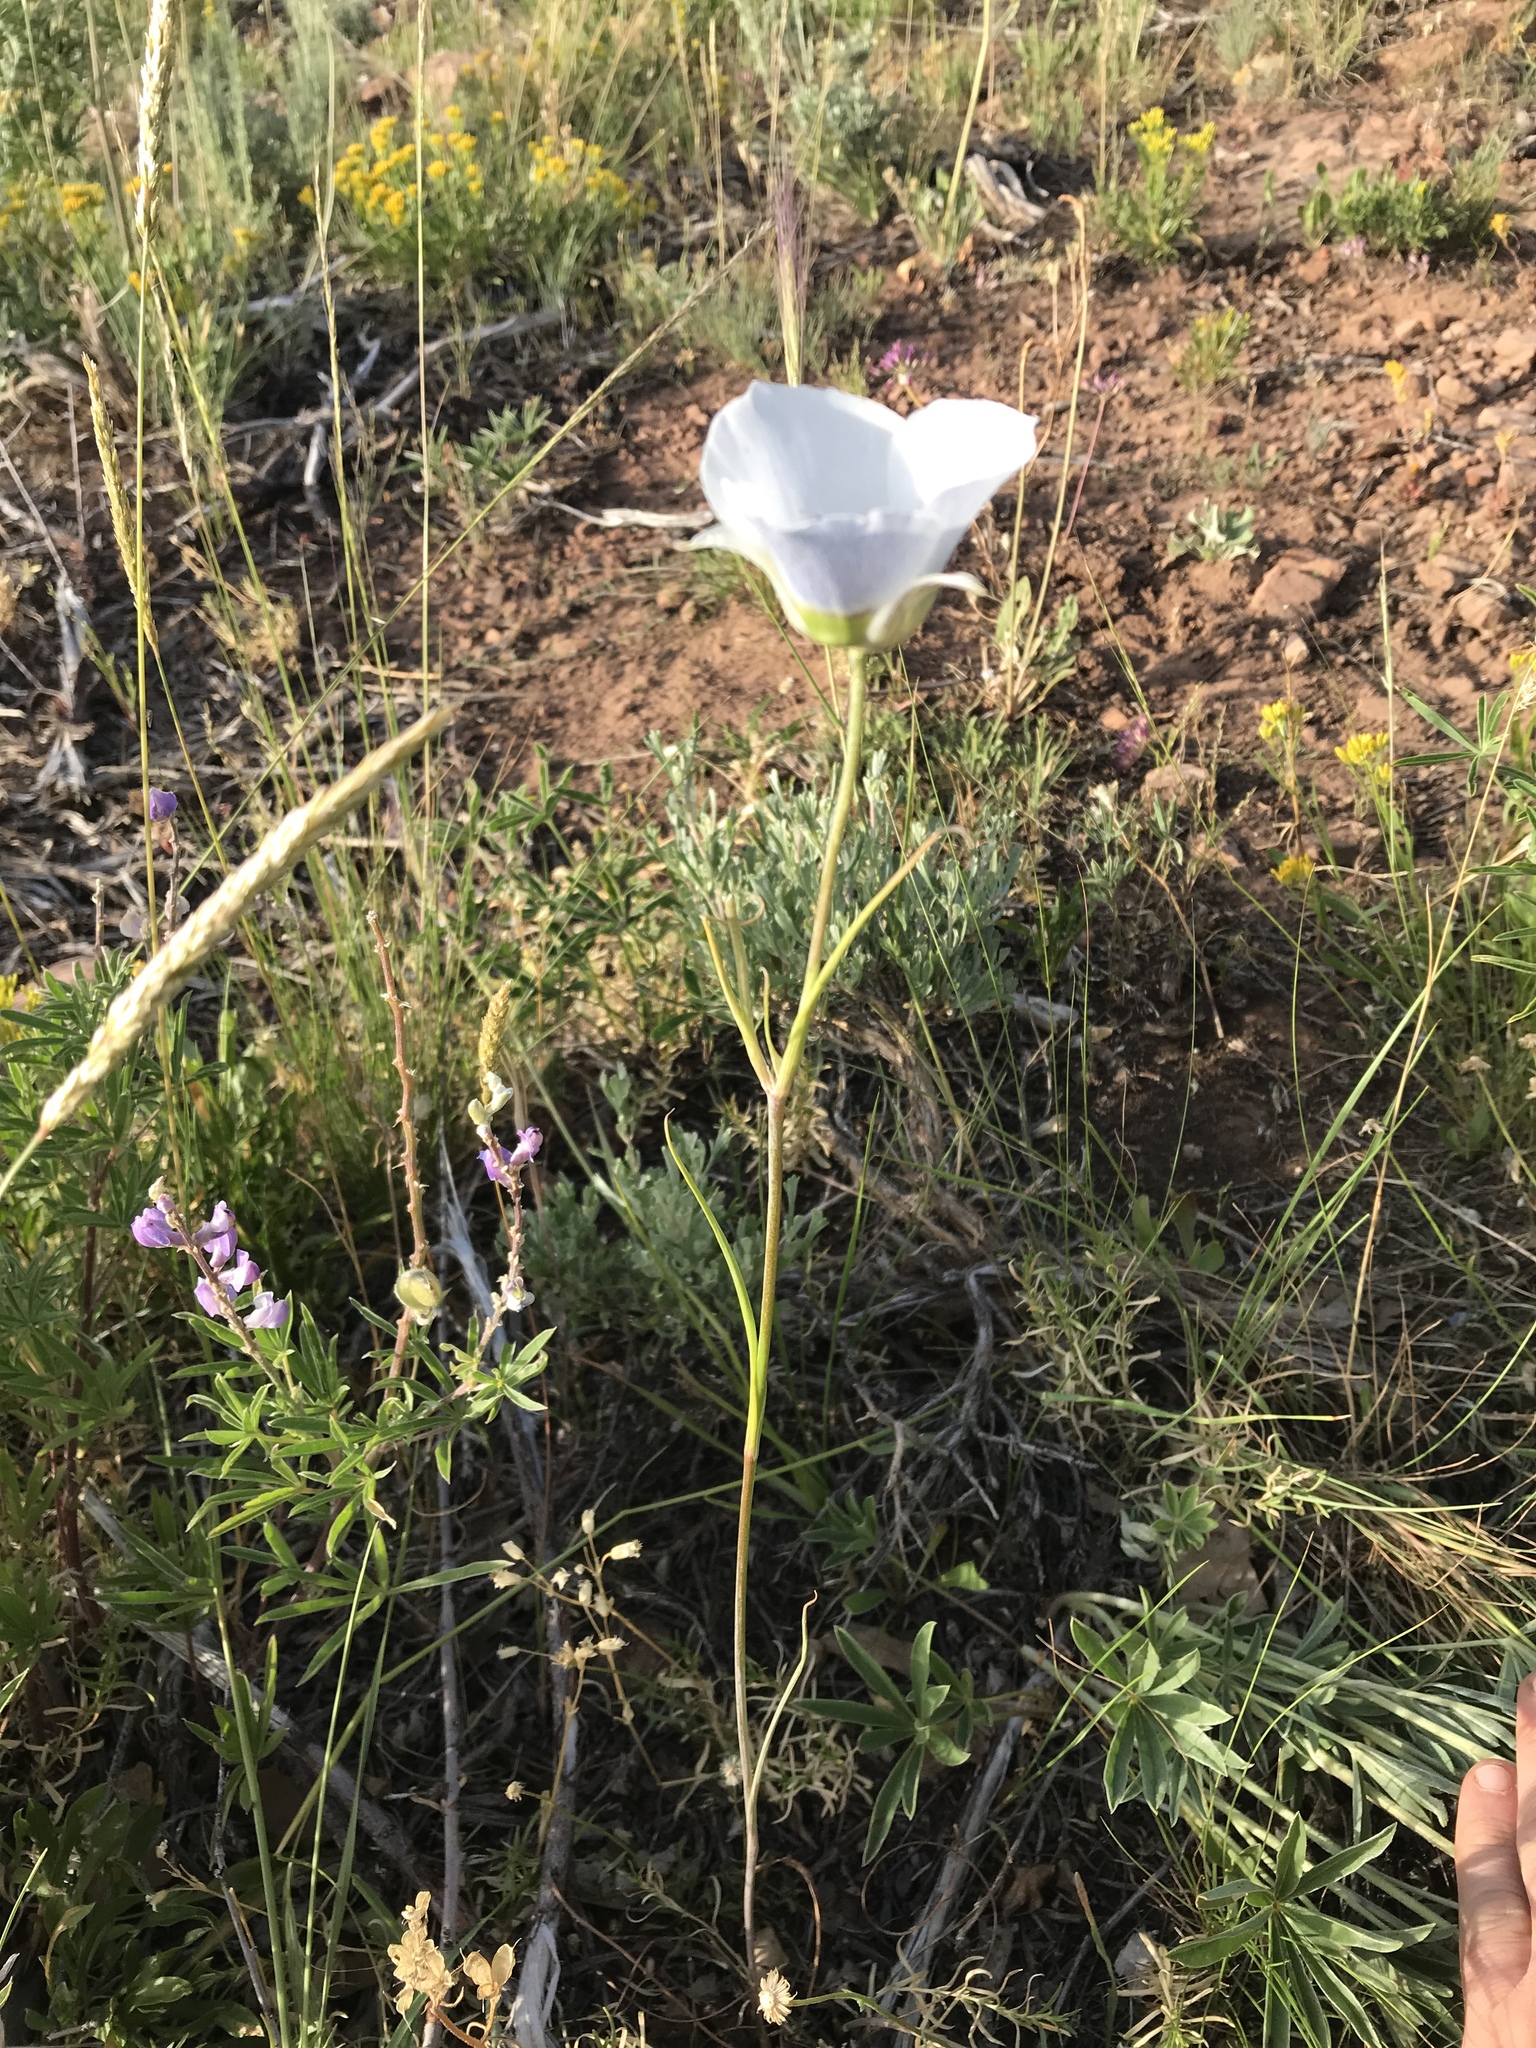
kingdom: Plantae
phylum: Tracheophyta
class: Liliopsida
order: Liliales
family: Liliaceae
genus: Calochortus
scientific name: Calochortus gunnisonii
